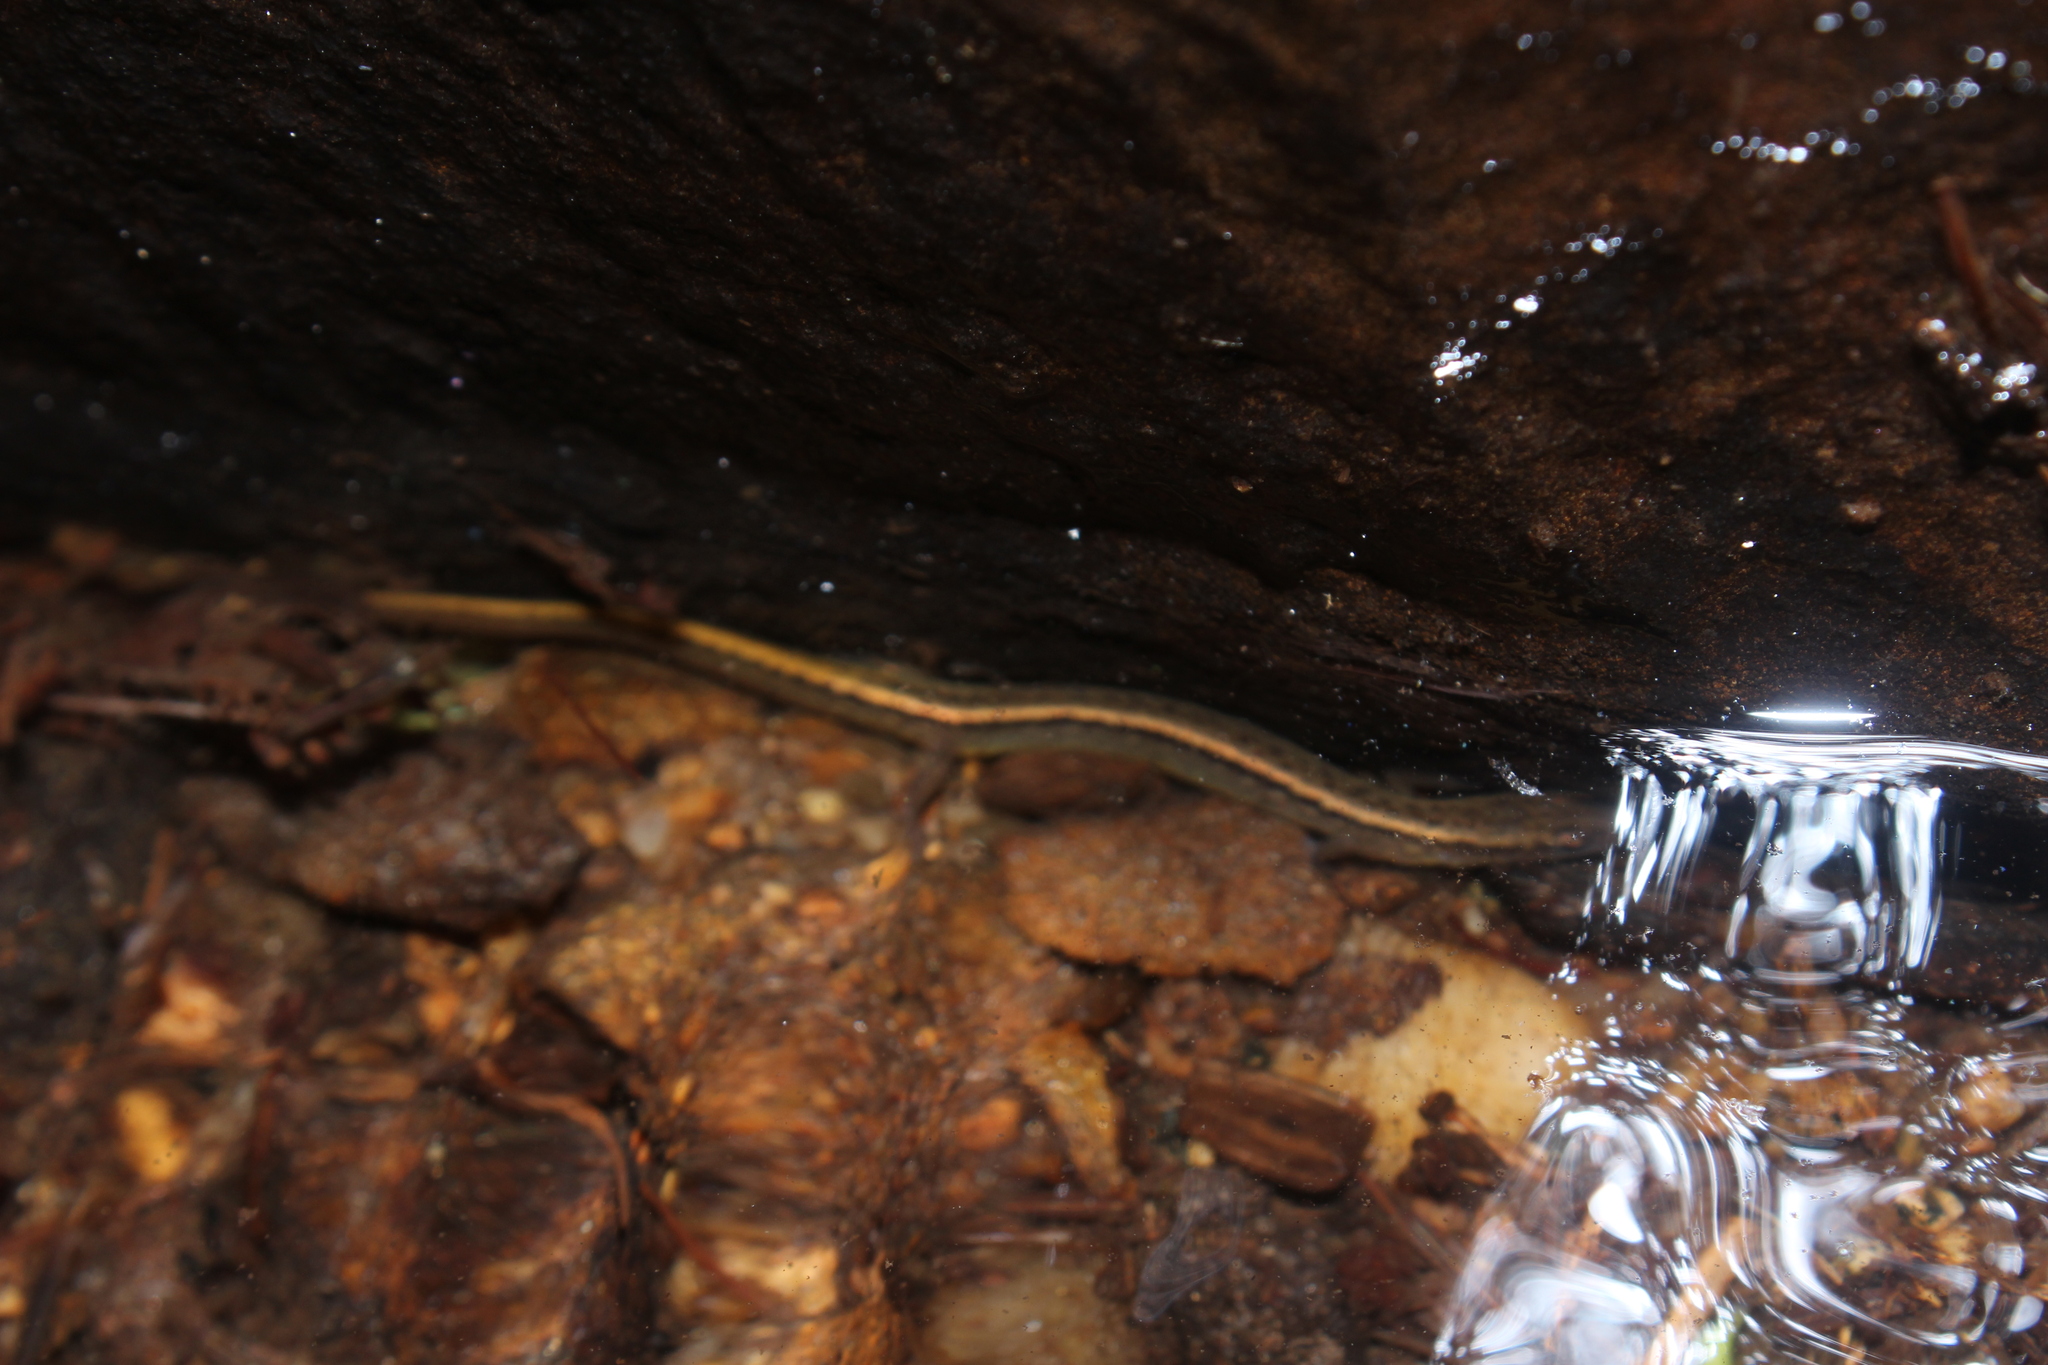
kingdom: Animalia
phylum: Chordata
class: Amphibia
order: Caudata
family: Plethodontidae
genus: Eurycea
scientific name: Eurycea bislineata
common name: Northern two-lined salamander
